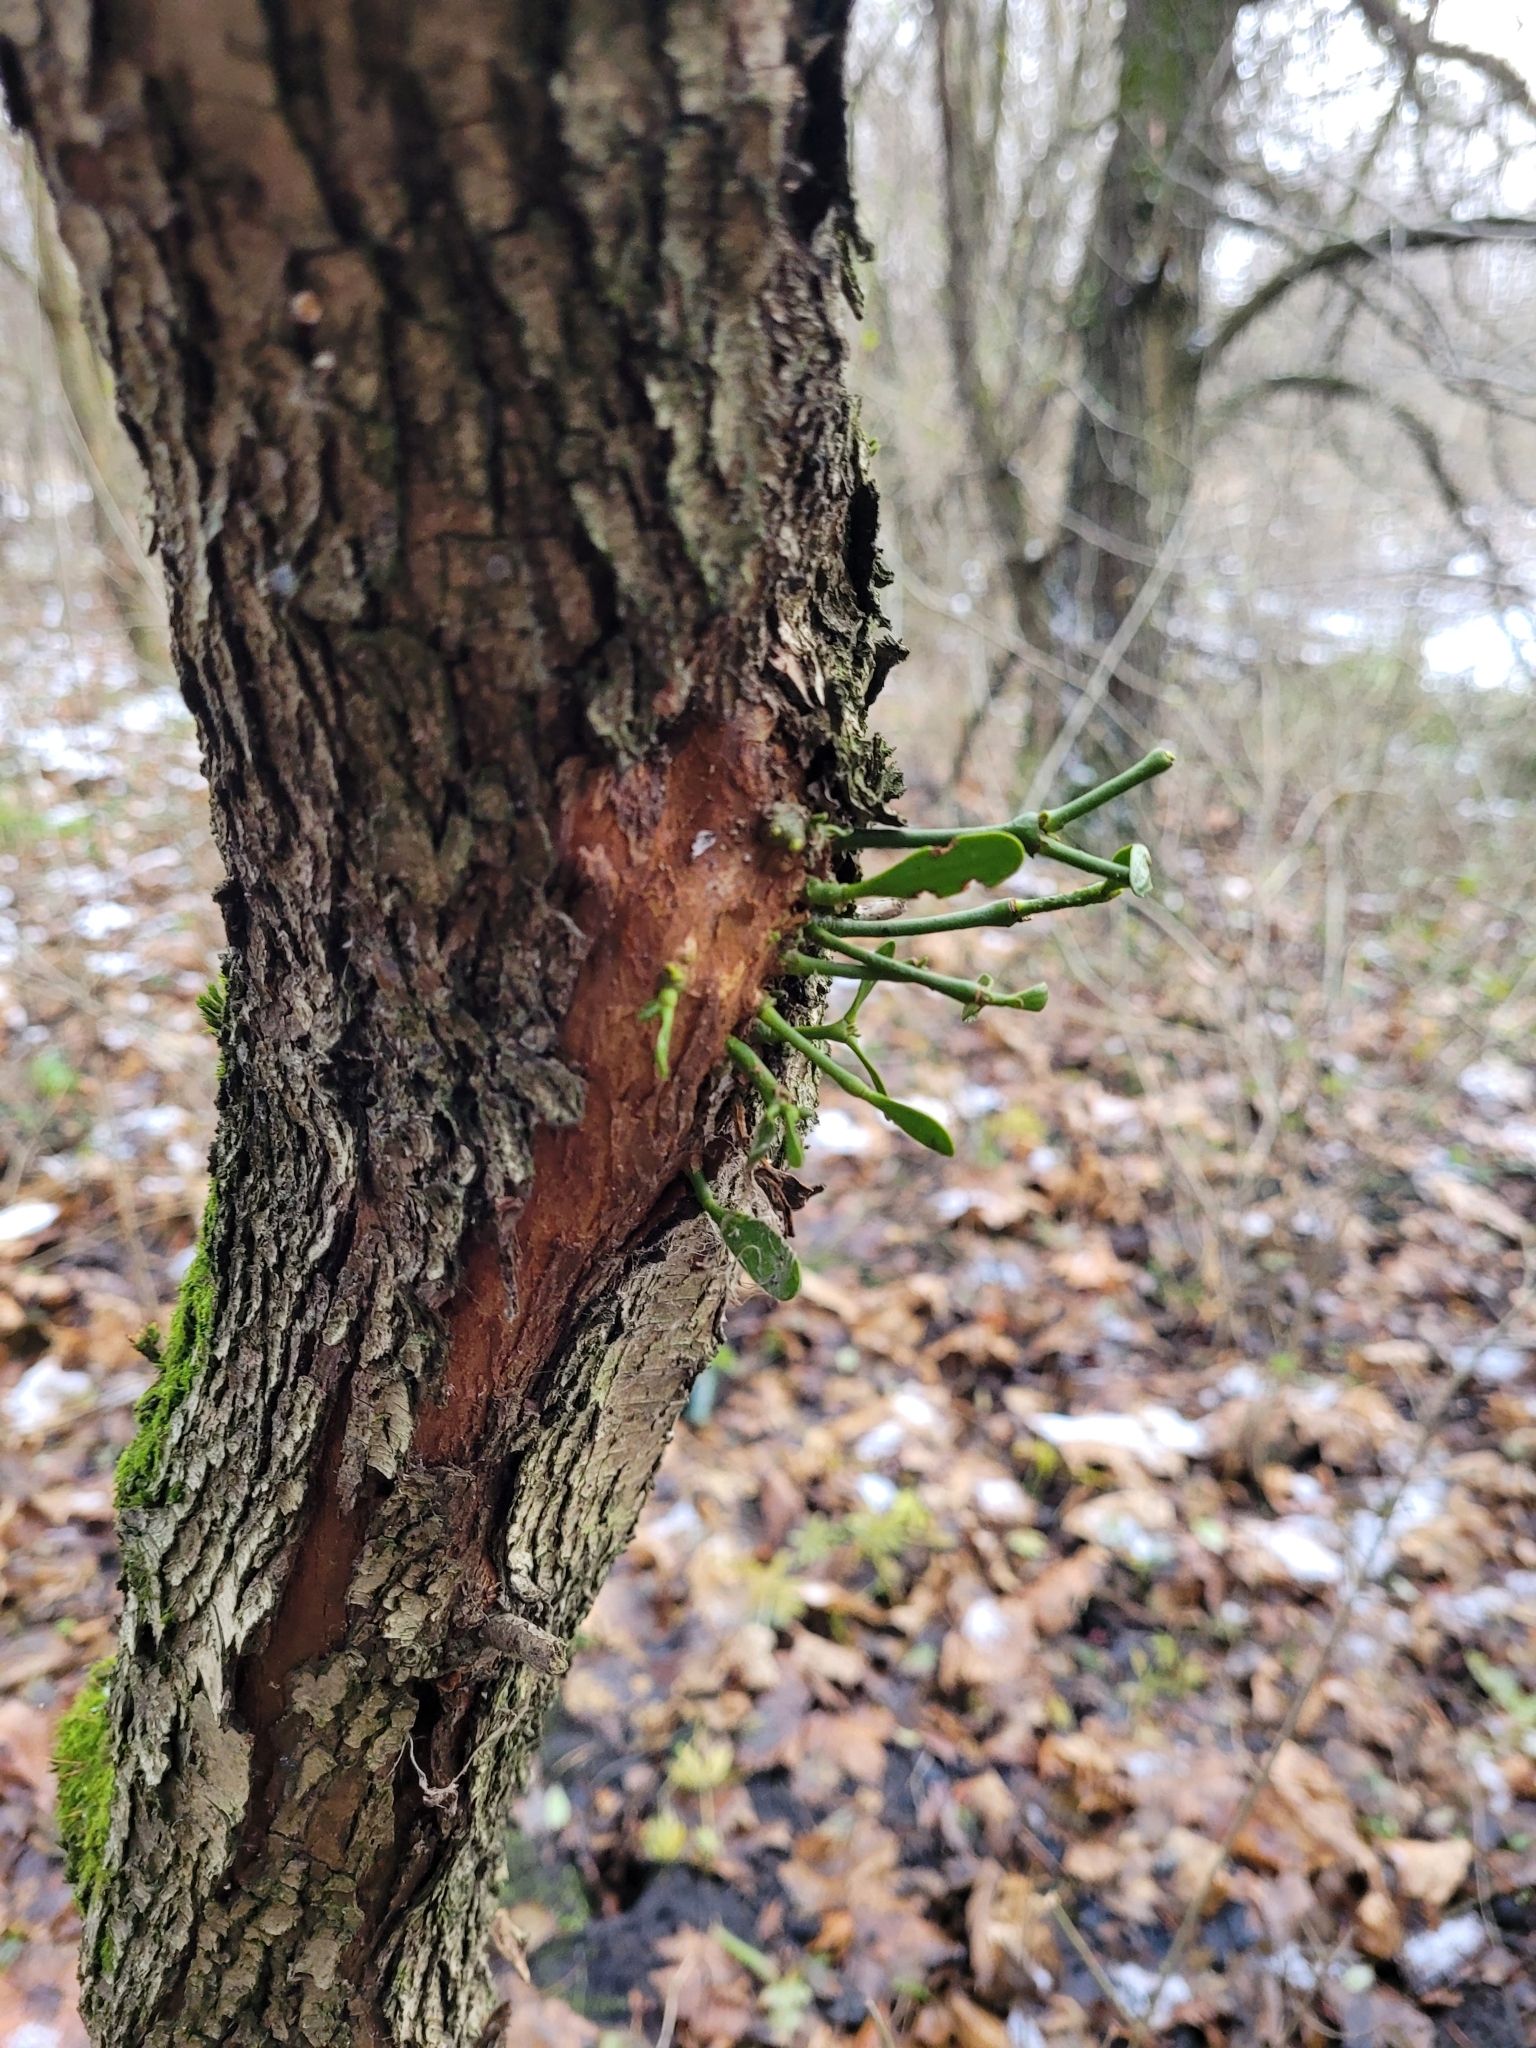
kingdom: Plantae
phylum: Tracheophyta
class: Magnoliopsida
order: Santalales
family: Viscaceae
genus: Viscum
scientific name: Viscum album
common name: Mistletoe
